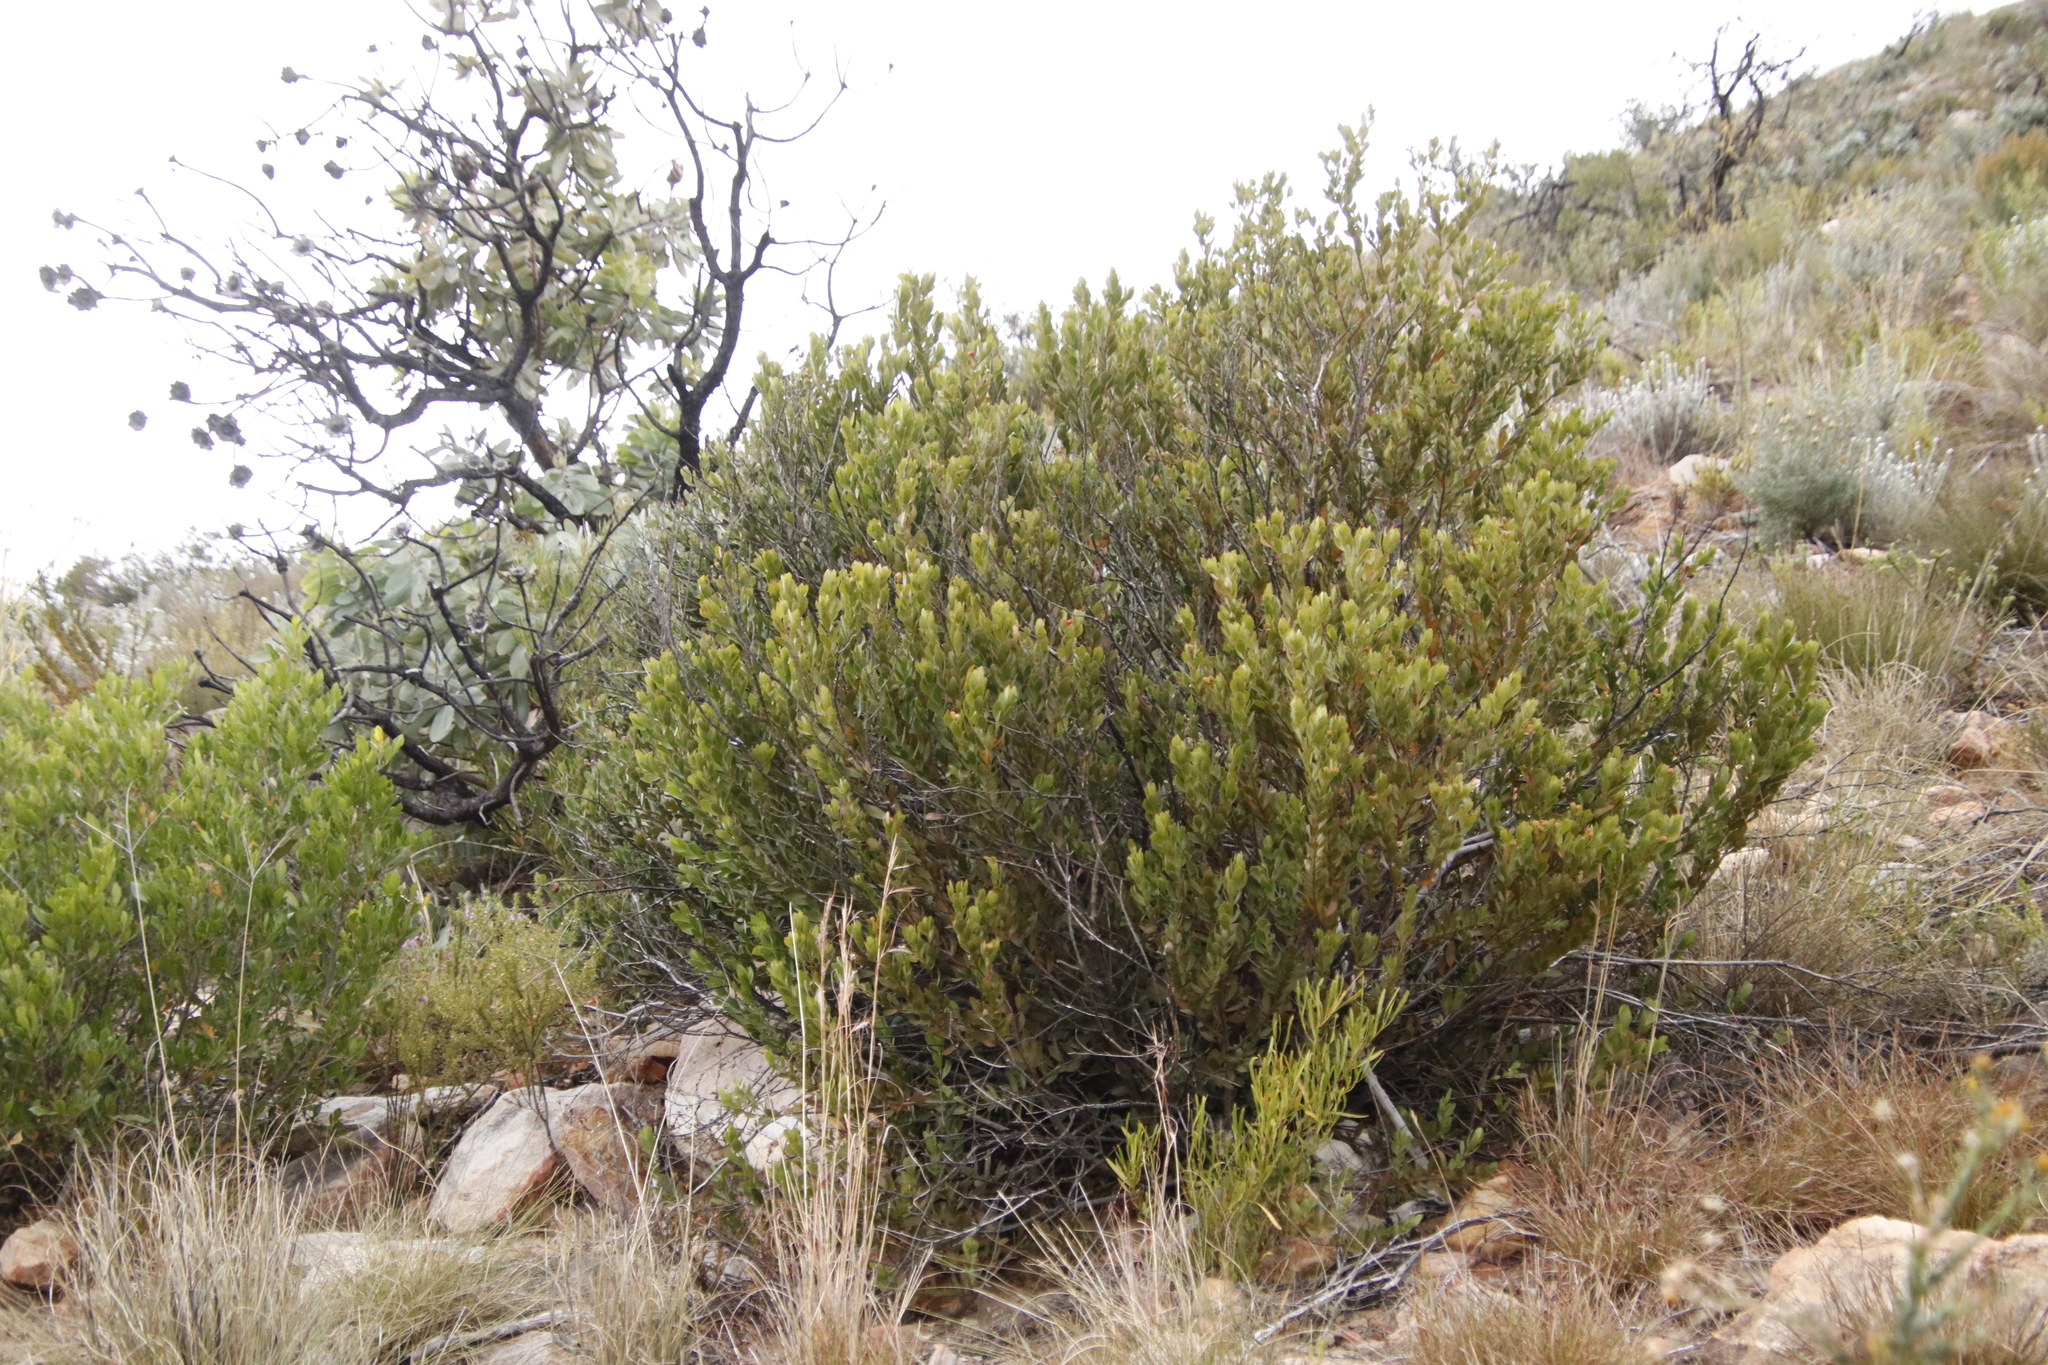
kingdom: Plantae
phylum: Tracheophyta
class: Magnoliopsida
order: Santalales
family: Santalaceae
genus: Osyris
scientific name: Osyris compressa
